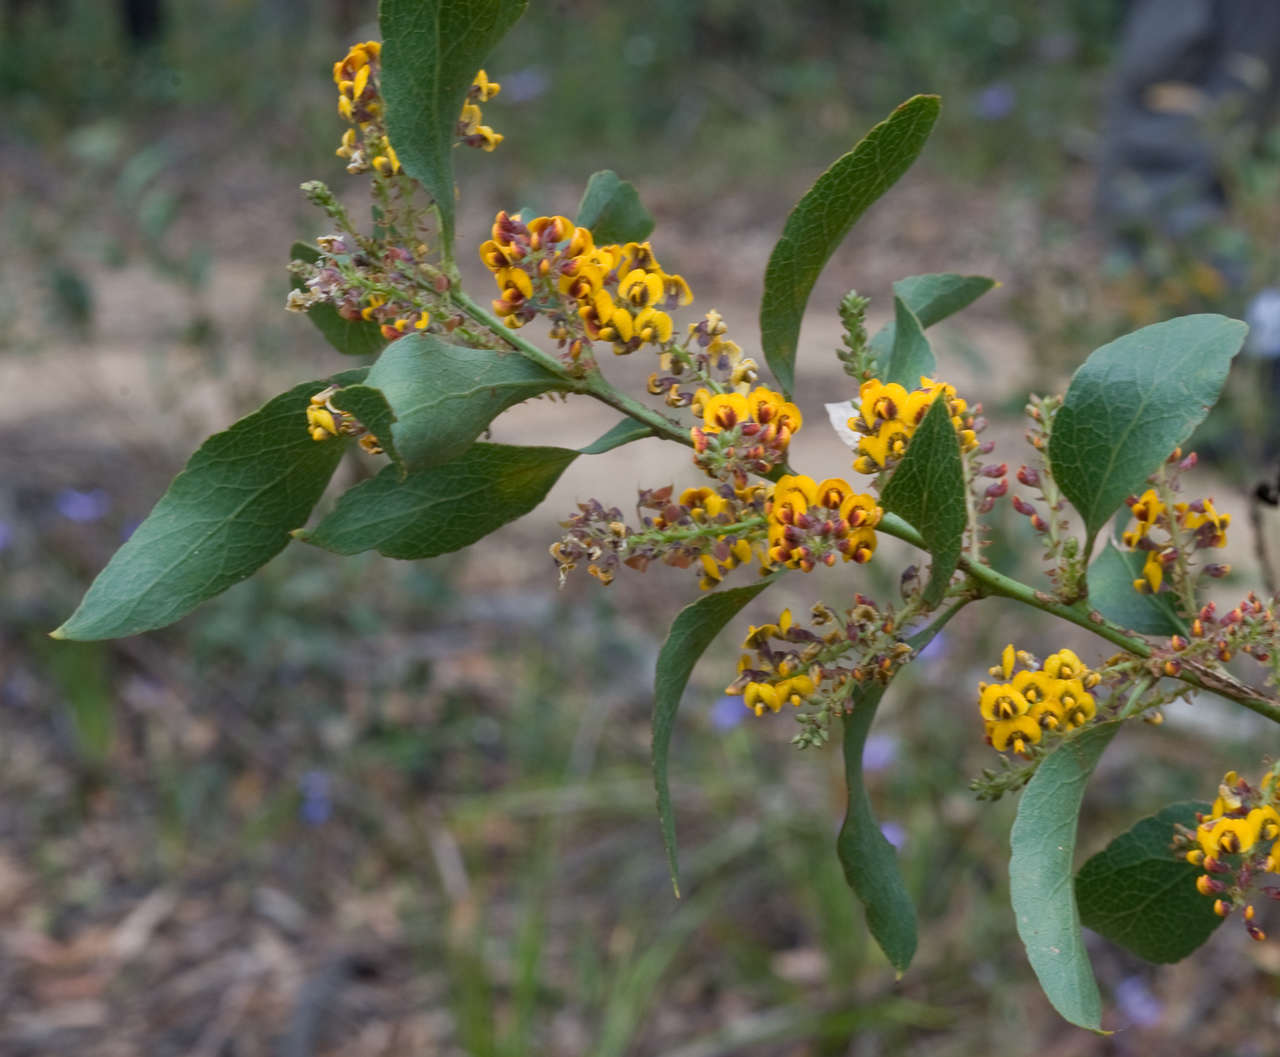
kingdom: Plantae
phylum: Tracheophyta
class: Magnoliopsida
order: Fabales
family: Fabaceae
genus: Daviesia
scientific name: Daviesia latifolia
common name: Hop bitter-pea
